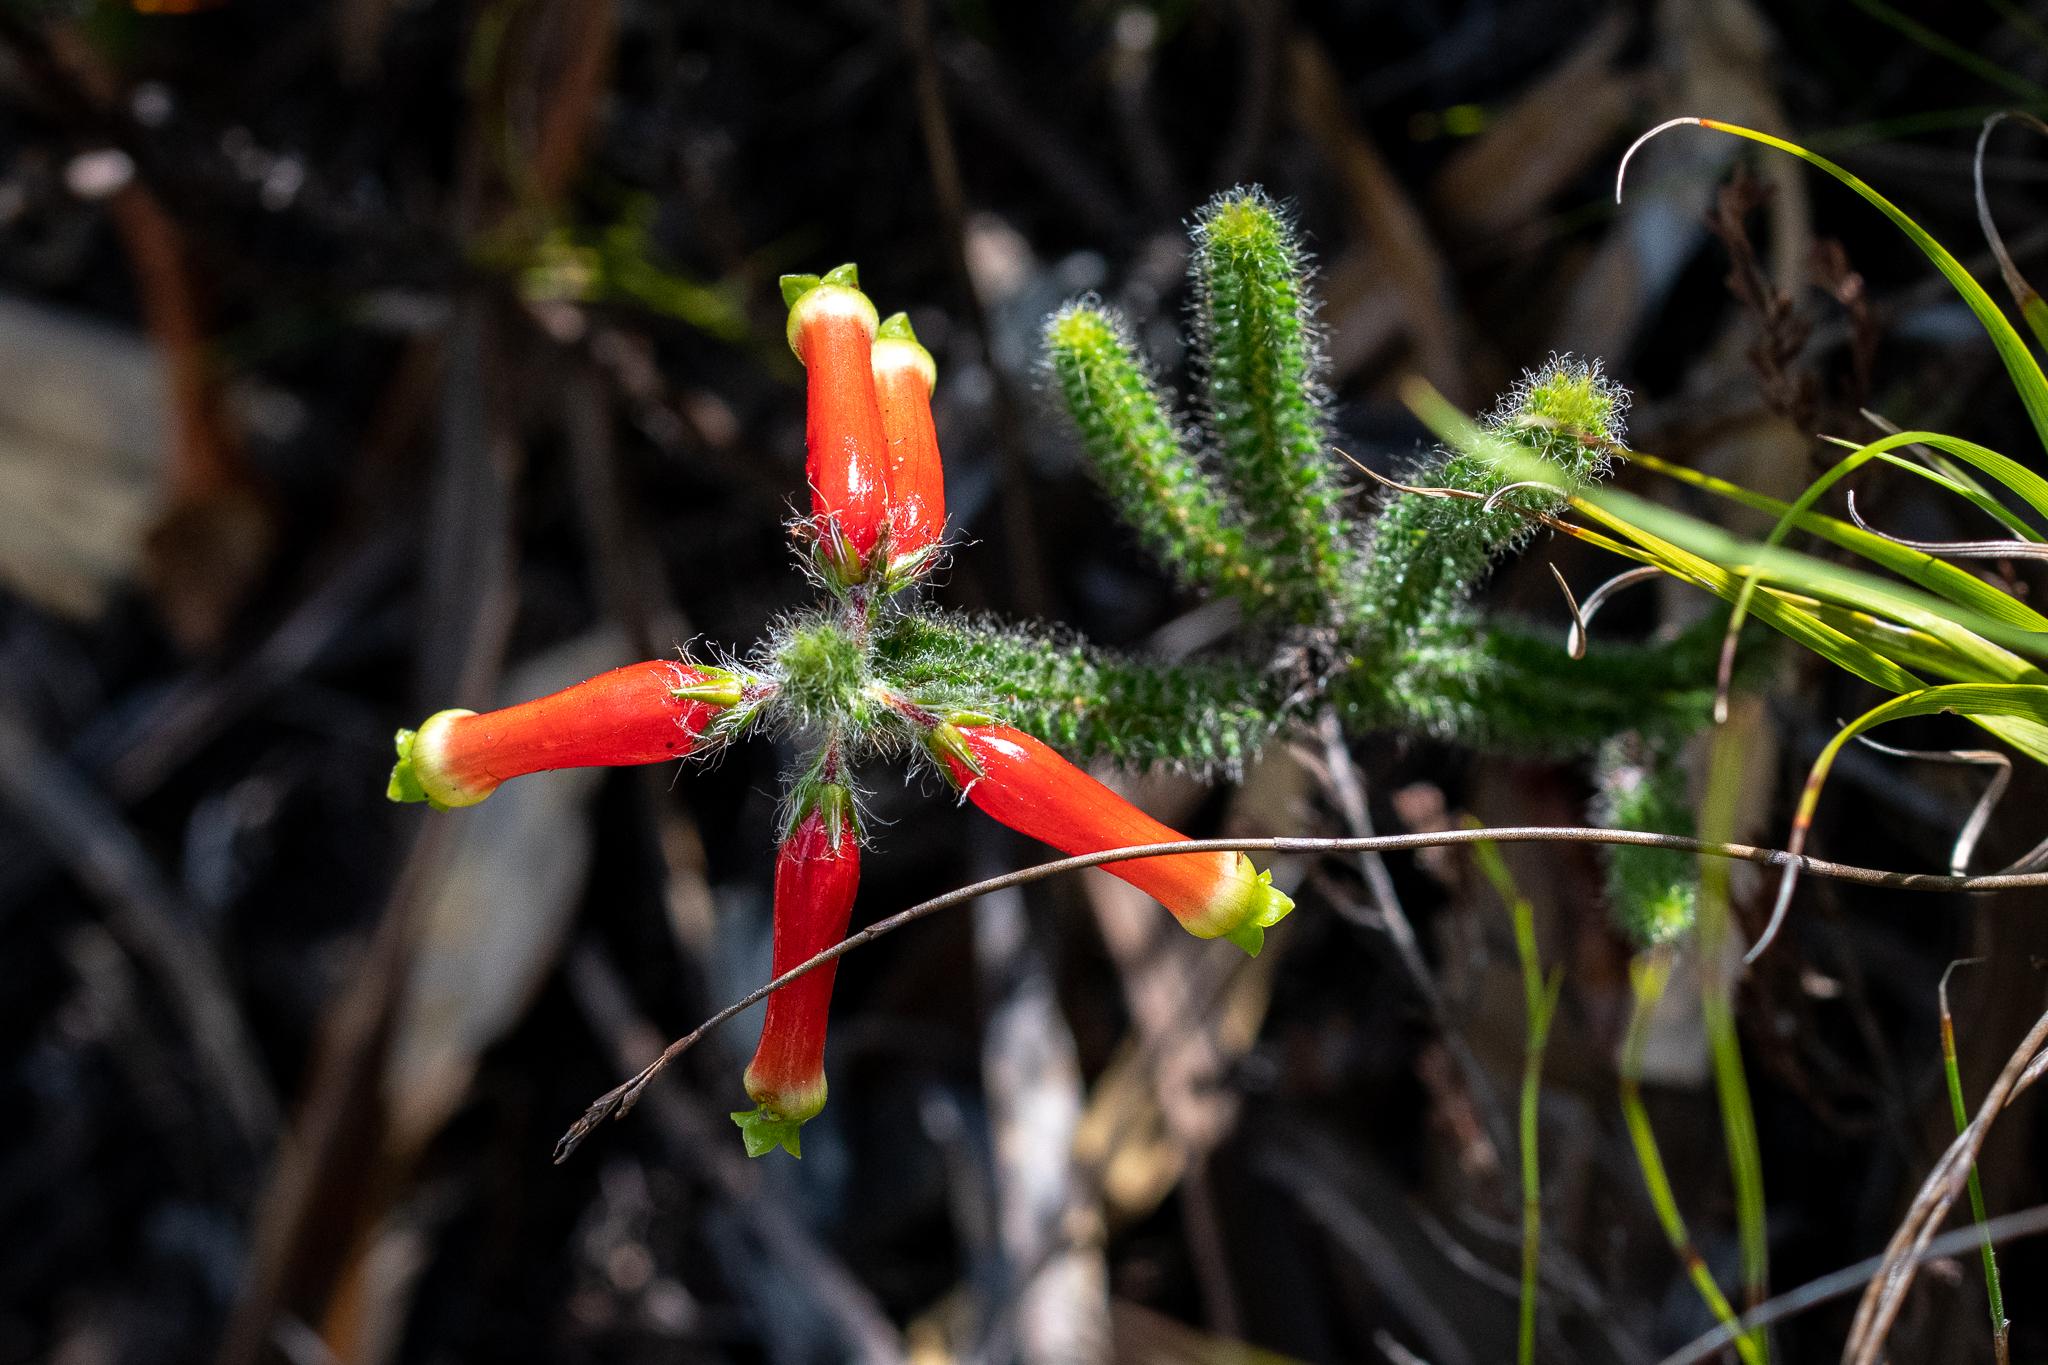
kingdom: Plantae
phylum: Tracheophyta
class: Magnoliopsida
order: Ericales
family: Ericaceae
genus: Erica
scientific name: Erica massonii
